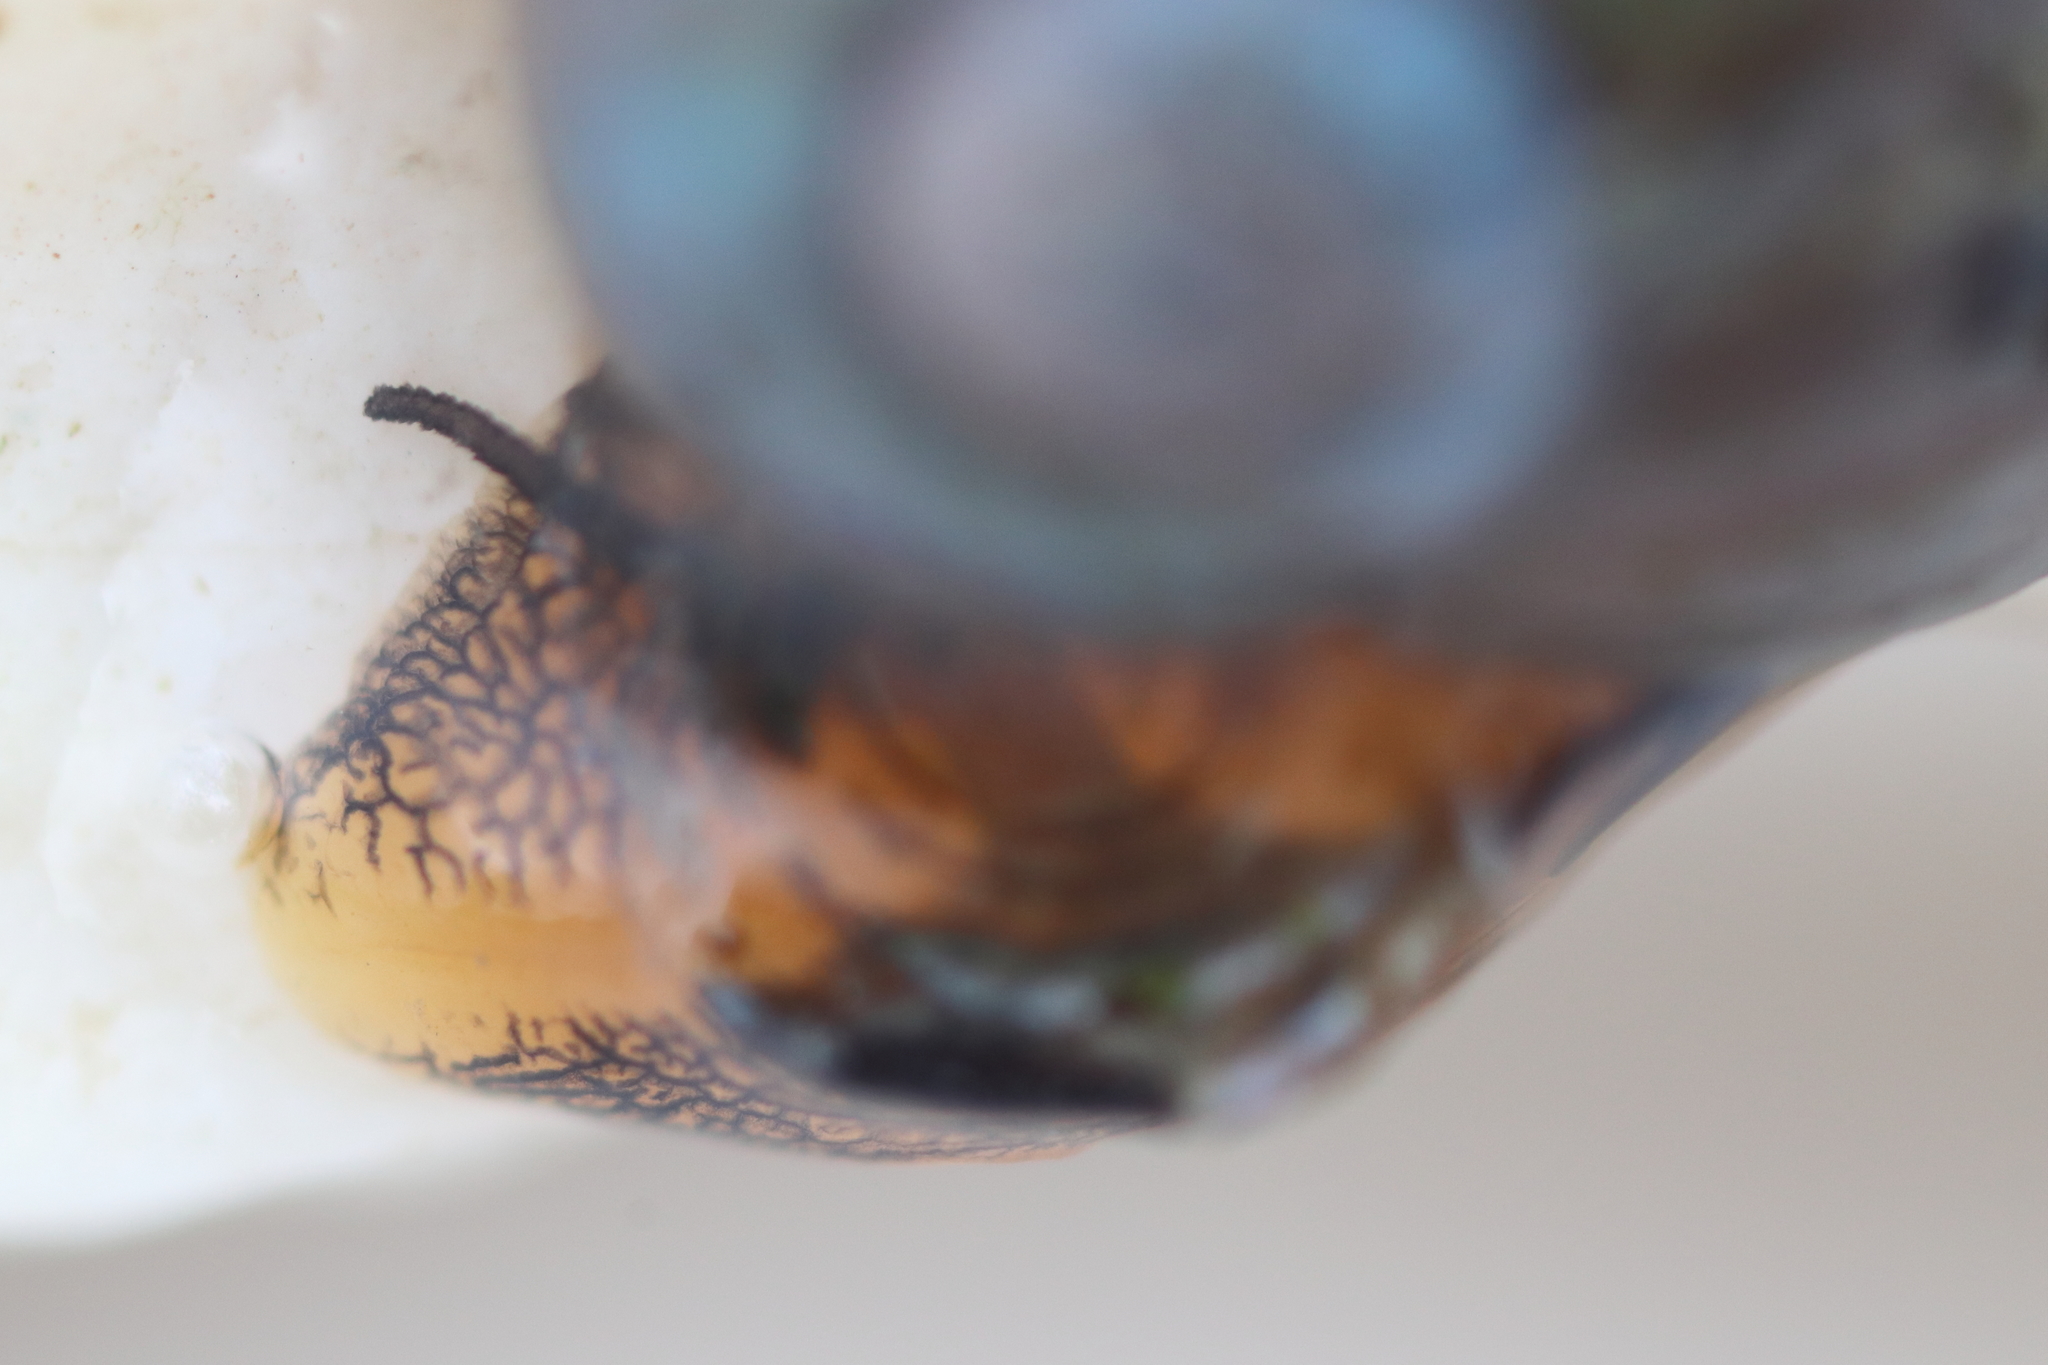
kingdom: Animalia
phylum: Mollusca
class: Gastropoda
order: Trochida
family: Margaritidae
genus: Margarites
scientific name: Margarites helicinus
